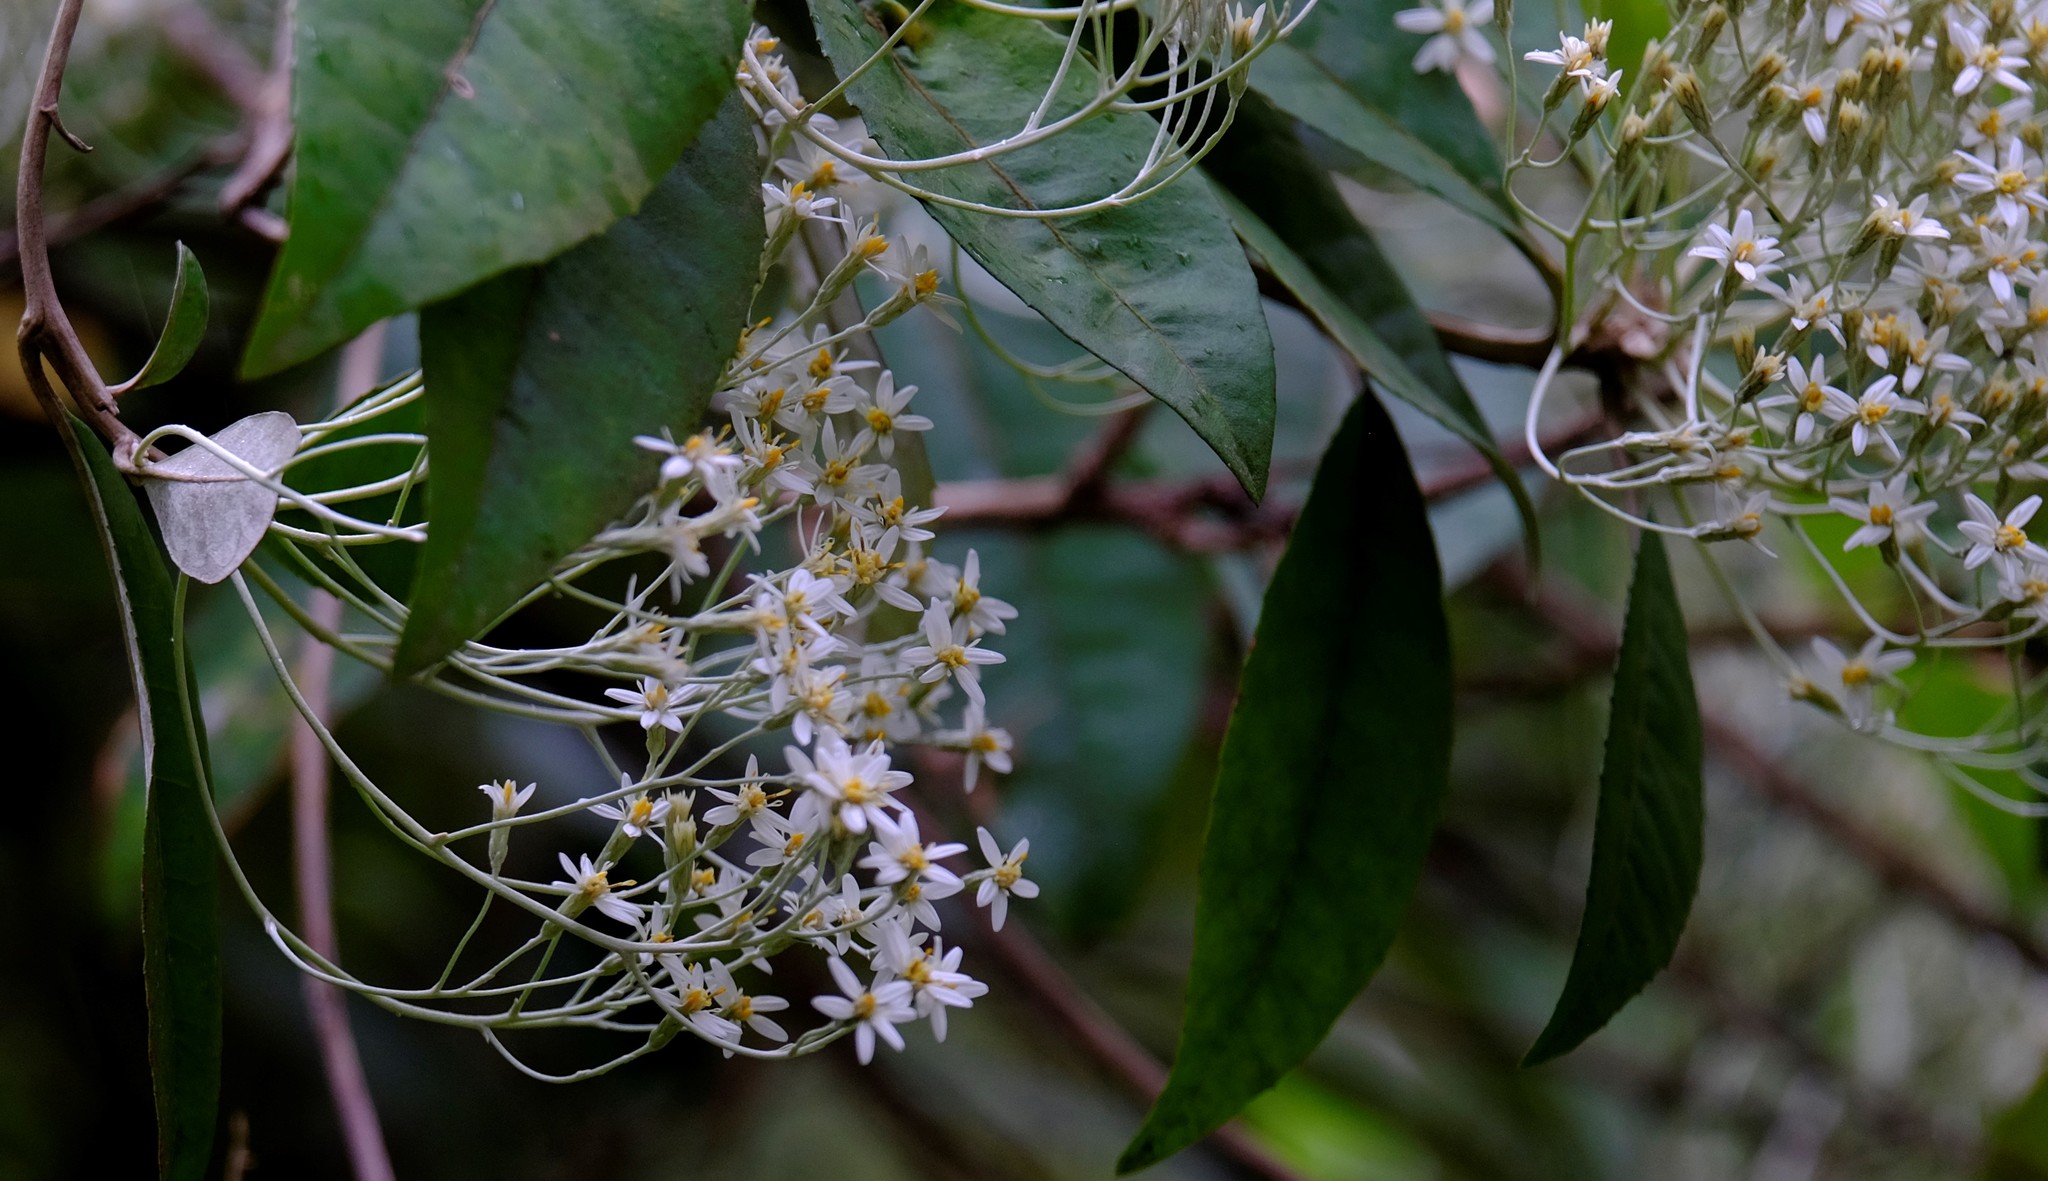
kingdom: Plantae
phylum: Tracheophyta
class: Magnoliopsida
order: Asterales
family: Asteraceae
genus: Olearia
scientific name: Olearia argophylla
